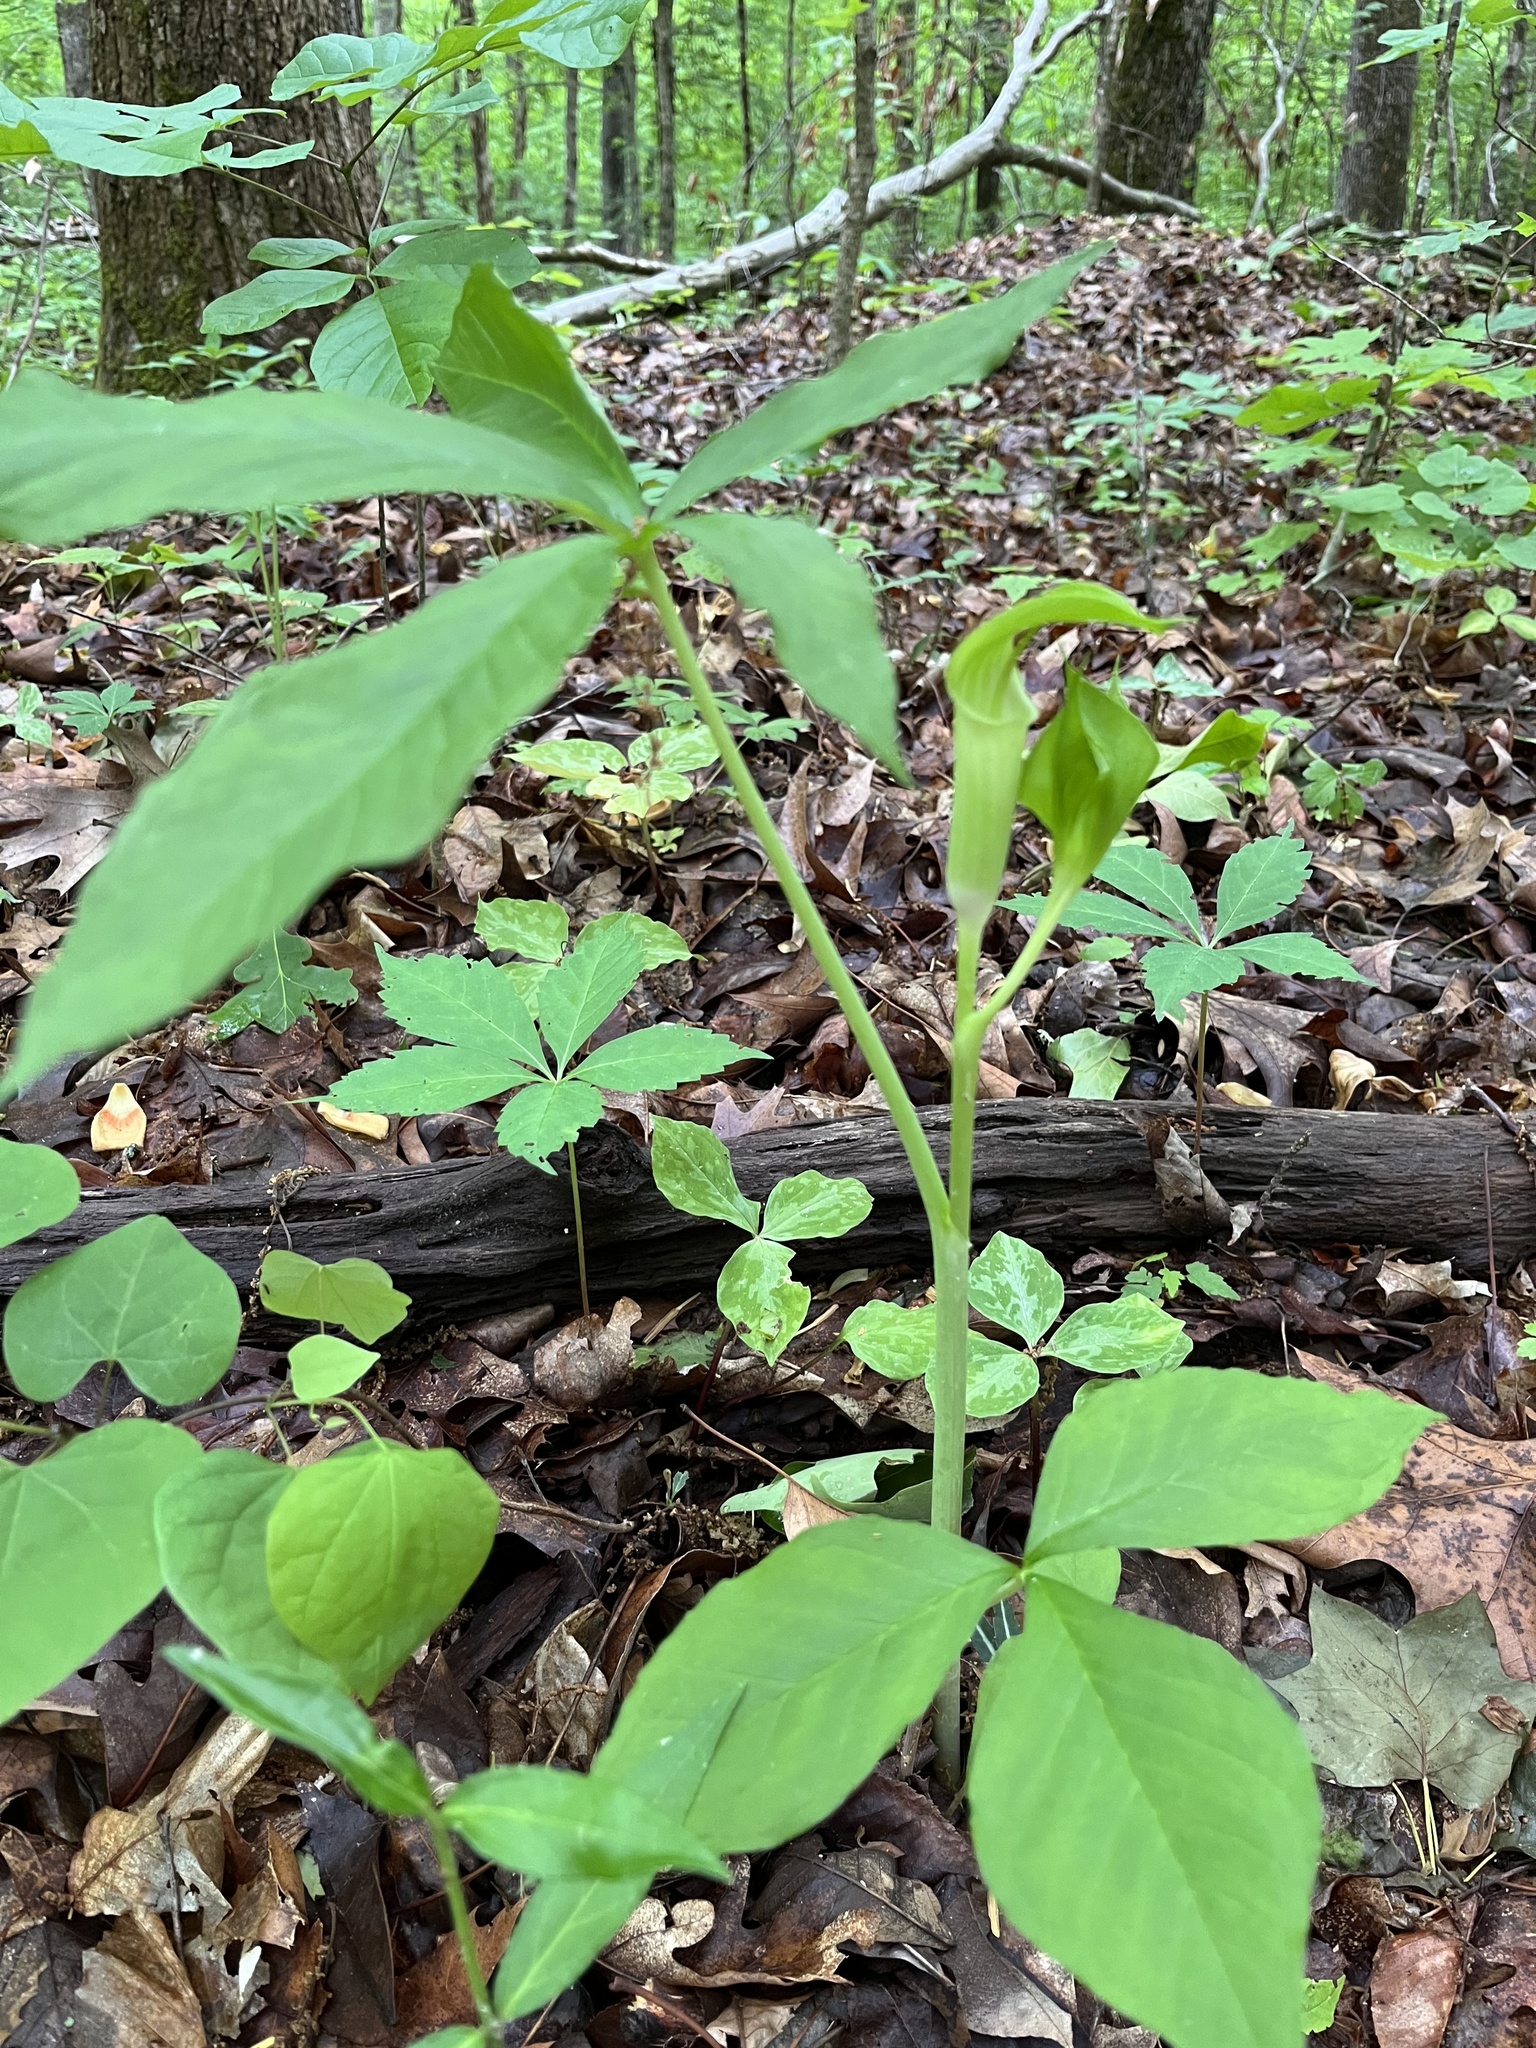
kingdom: Plantae
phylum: Tracheophyta
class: Liliopsida
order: Alismatales
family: Araceae
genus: Arisaema
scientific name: Arisaema quinatum
